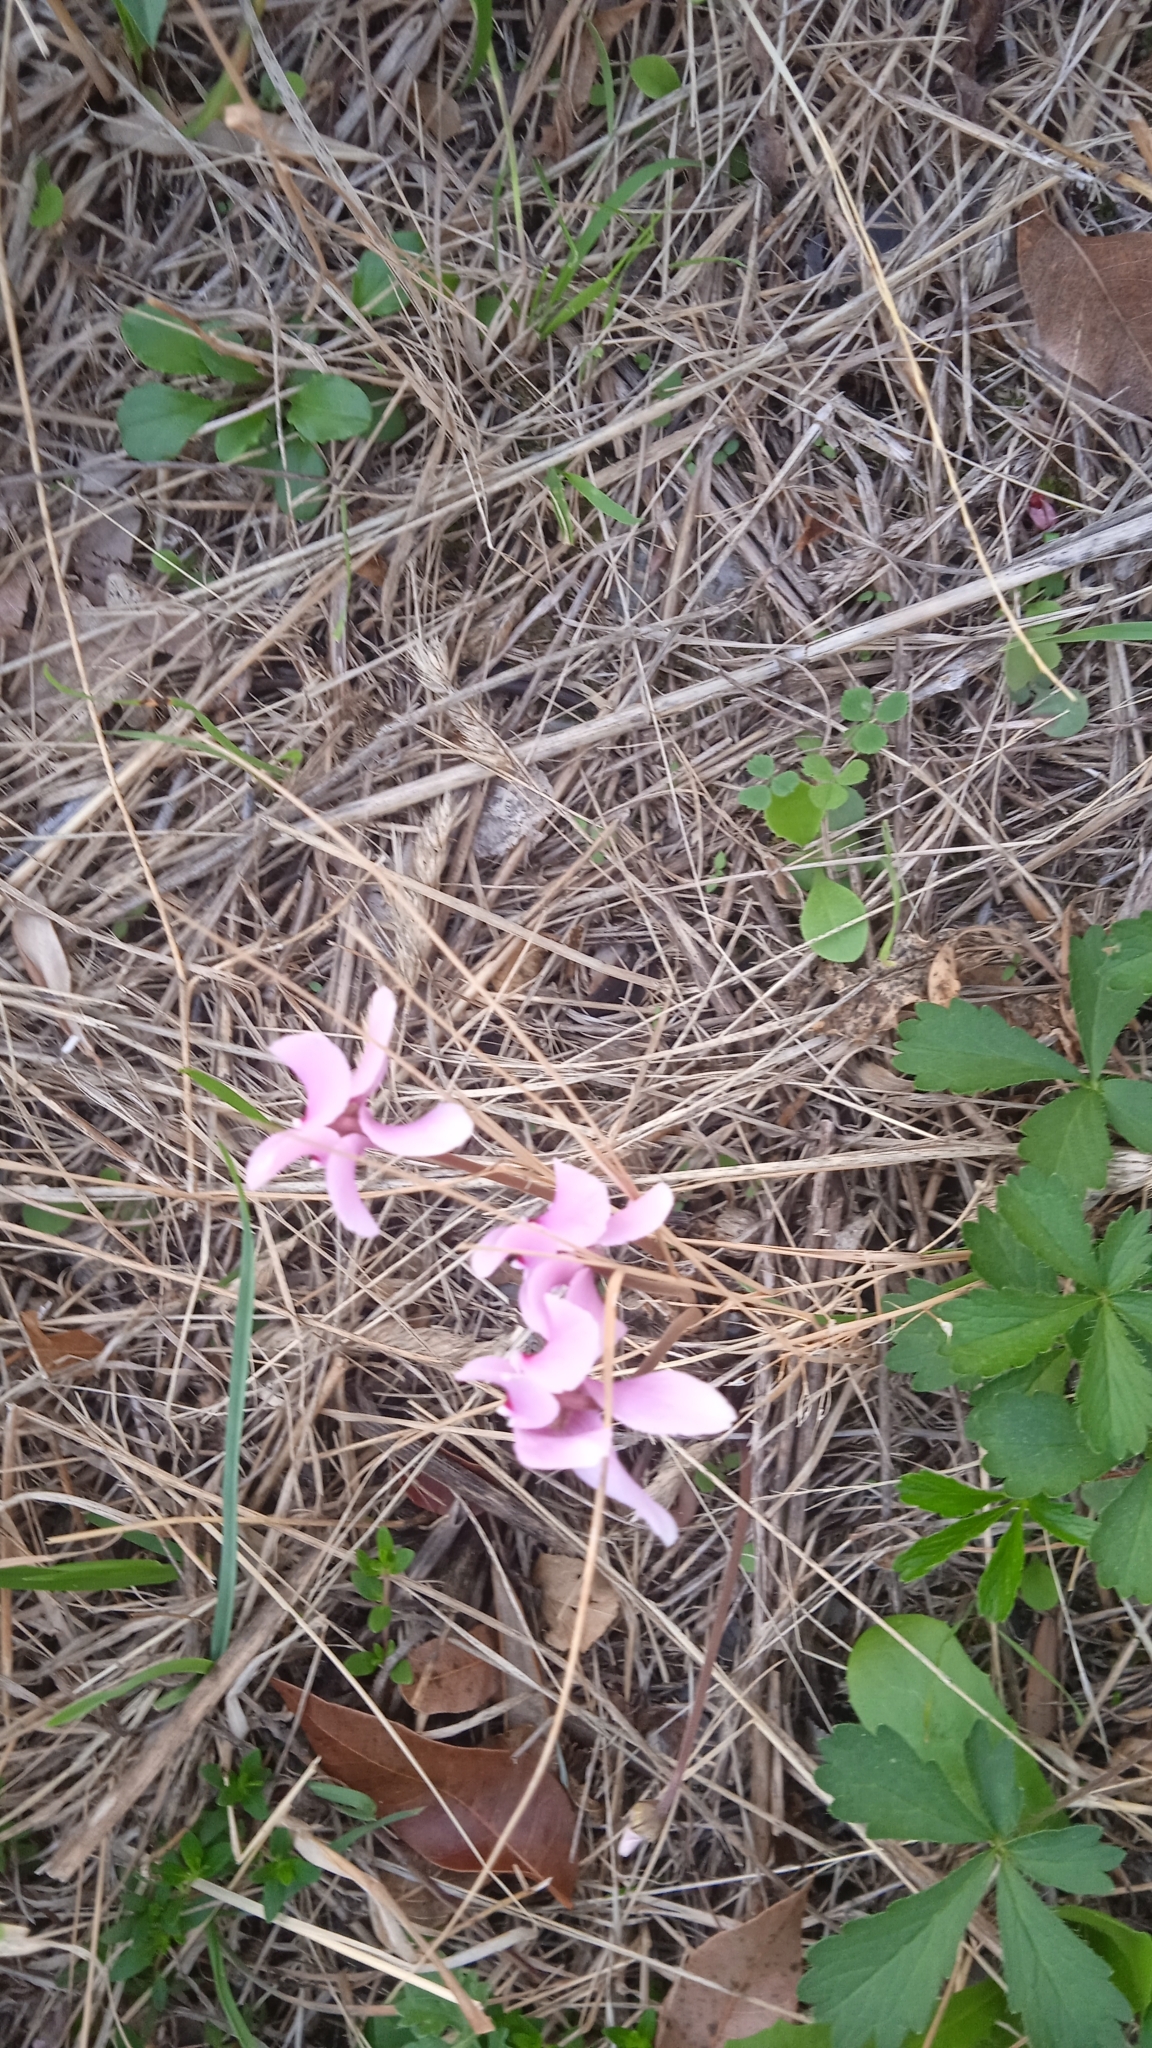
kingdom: Plantae
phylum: Tracheophyta
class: Magnoliopsida
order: Ericales
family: Primulaceae
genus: Cyclamen
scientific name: Cyclamen hederifolium
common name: Sowbread
